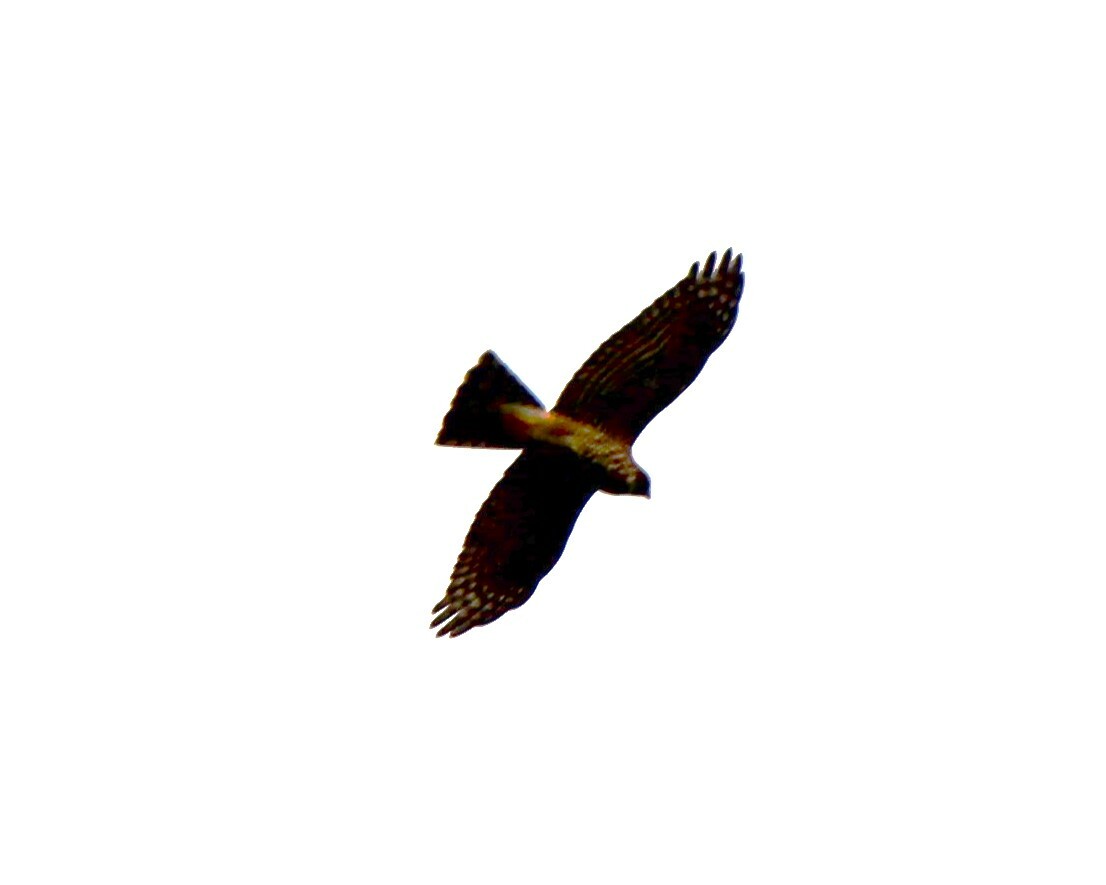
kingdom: Animalia
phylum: Chordata
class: Aves
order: Accipitriformes
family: Accipitridae
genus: Accipiter
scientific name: Accipiter striatus
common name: Sharp-shinned hawk
